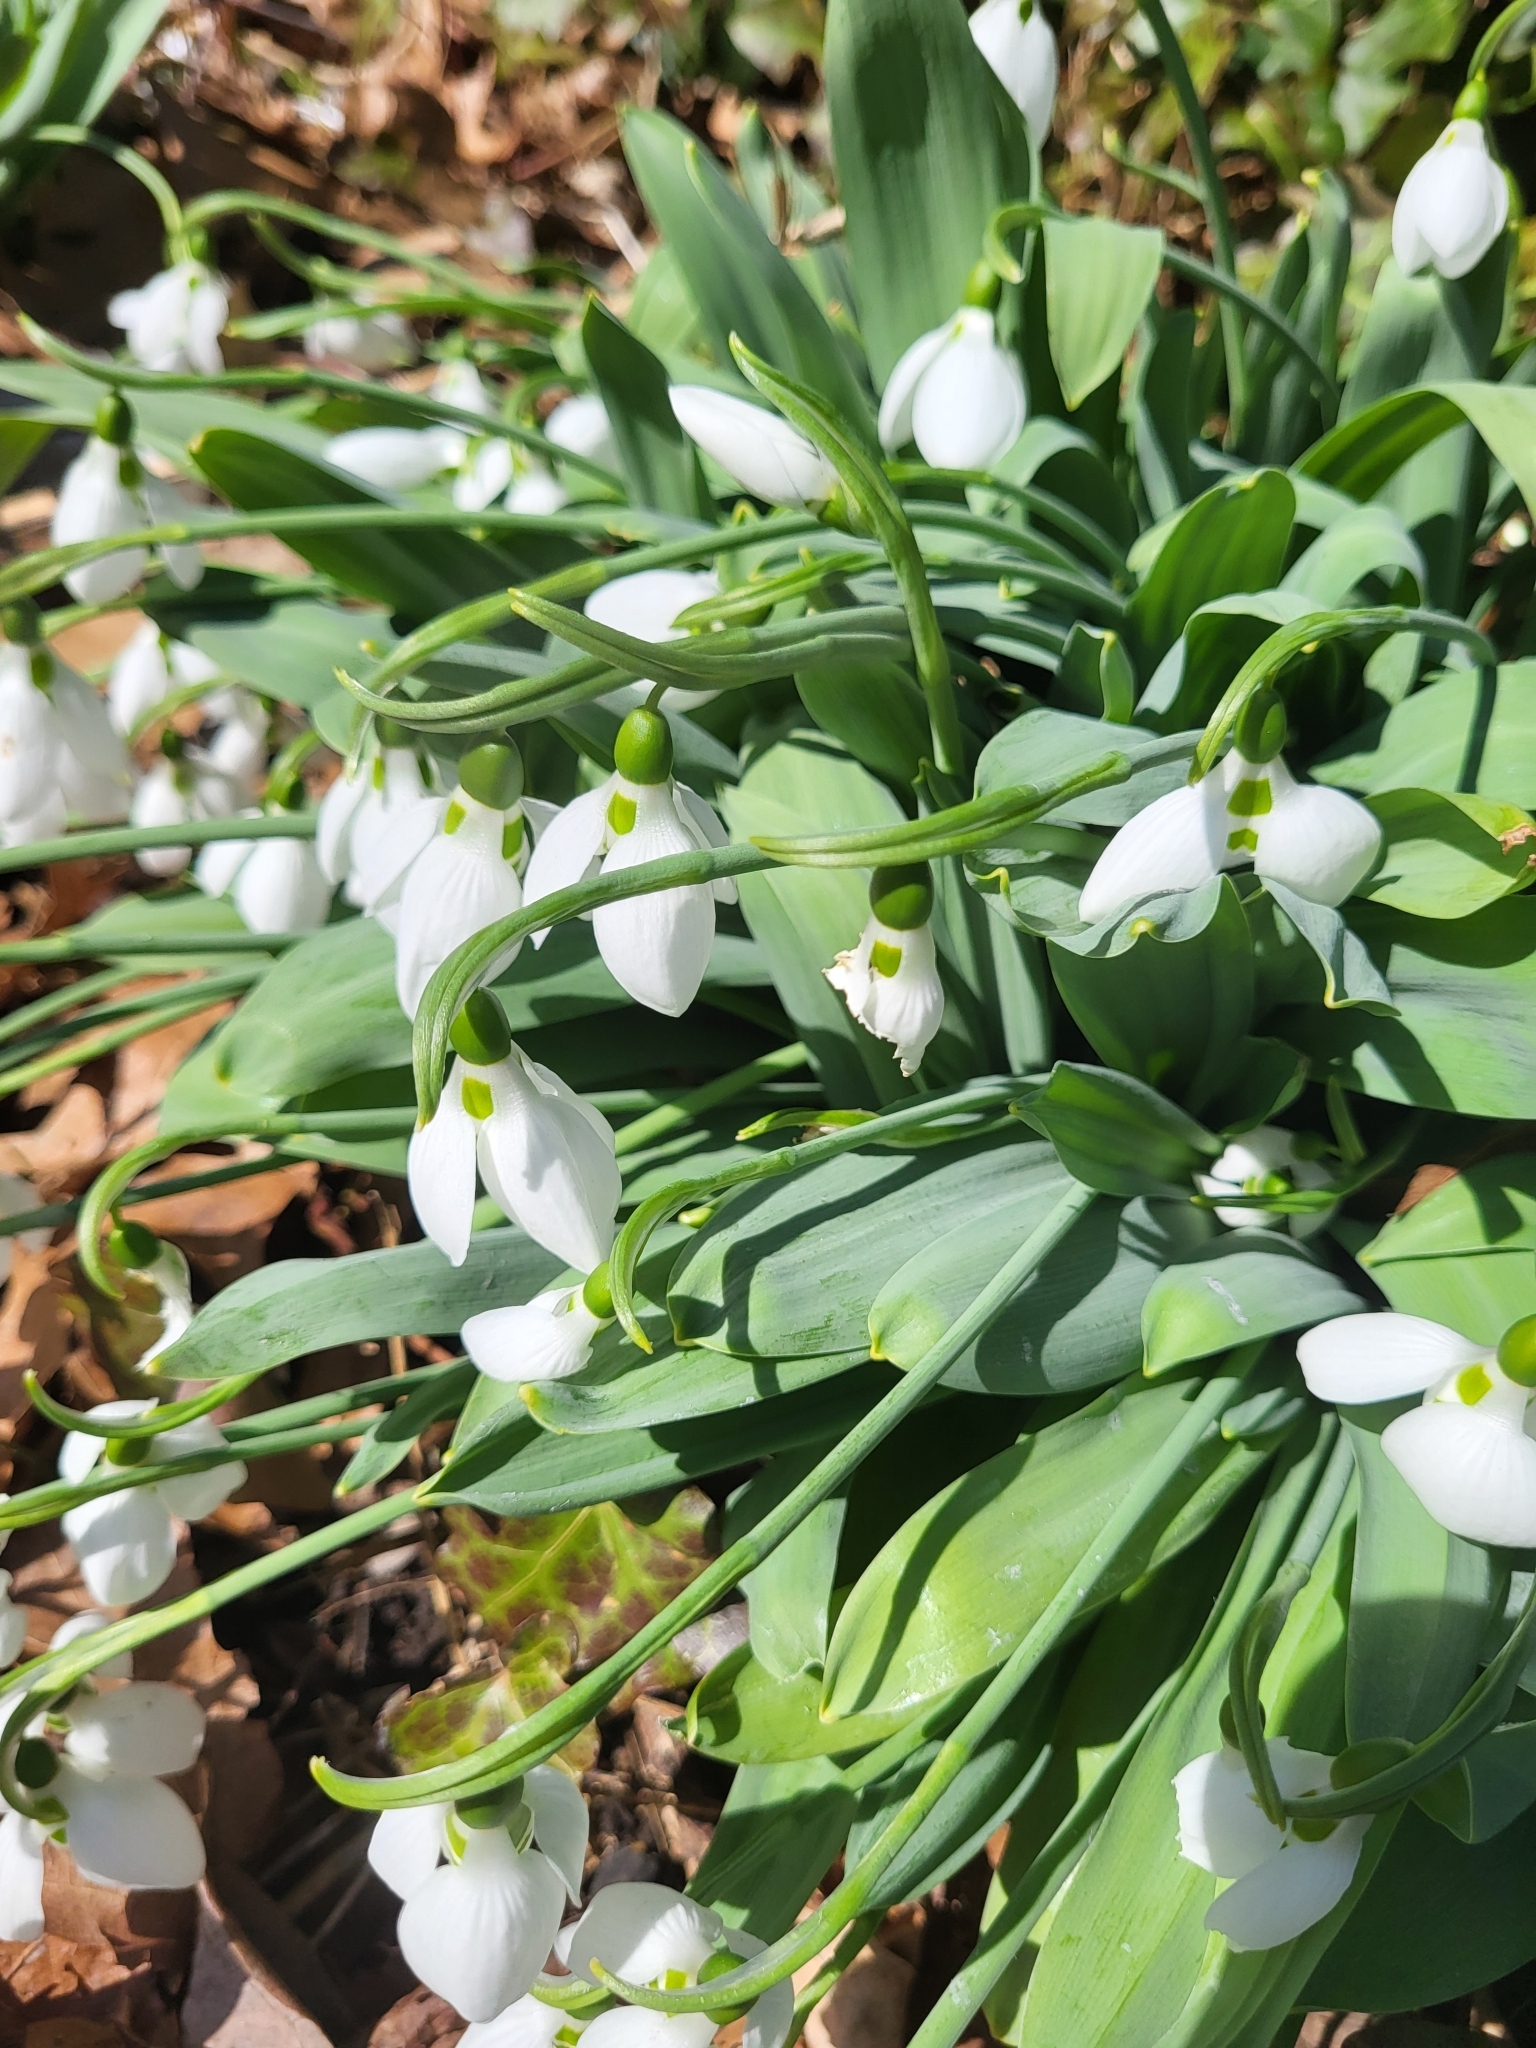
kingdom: Plantae
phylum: Tracheophyta
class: Liliopsida
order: Asparagales
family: Amaryllidaceae
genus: Galanthus
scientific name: Galanthus elwesii
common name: Greater snowdrop
